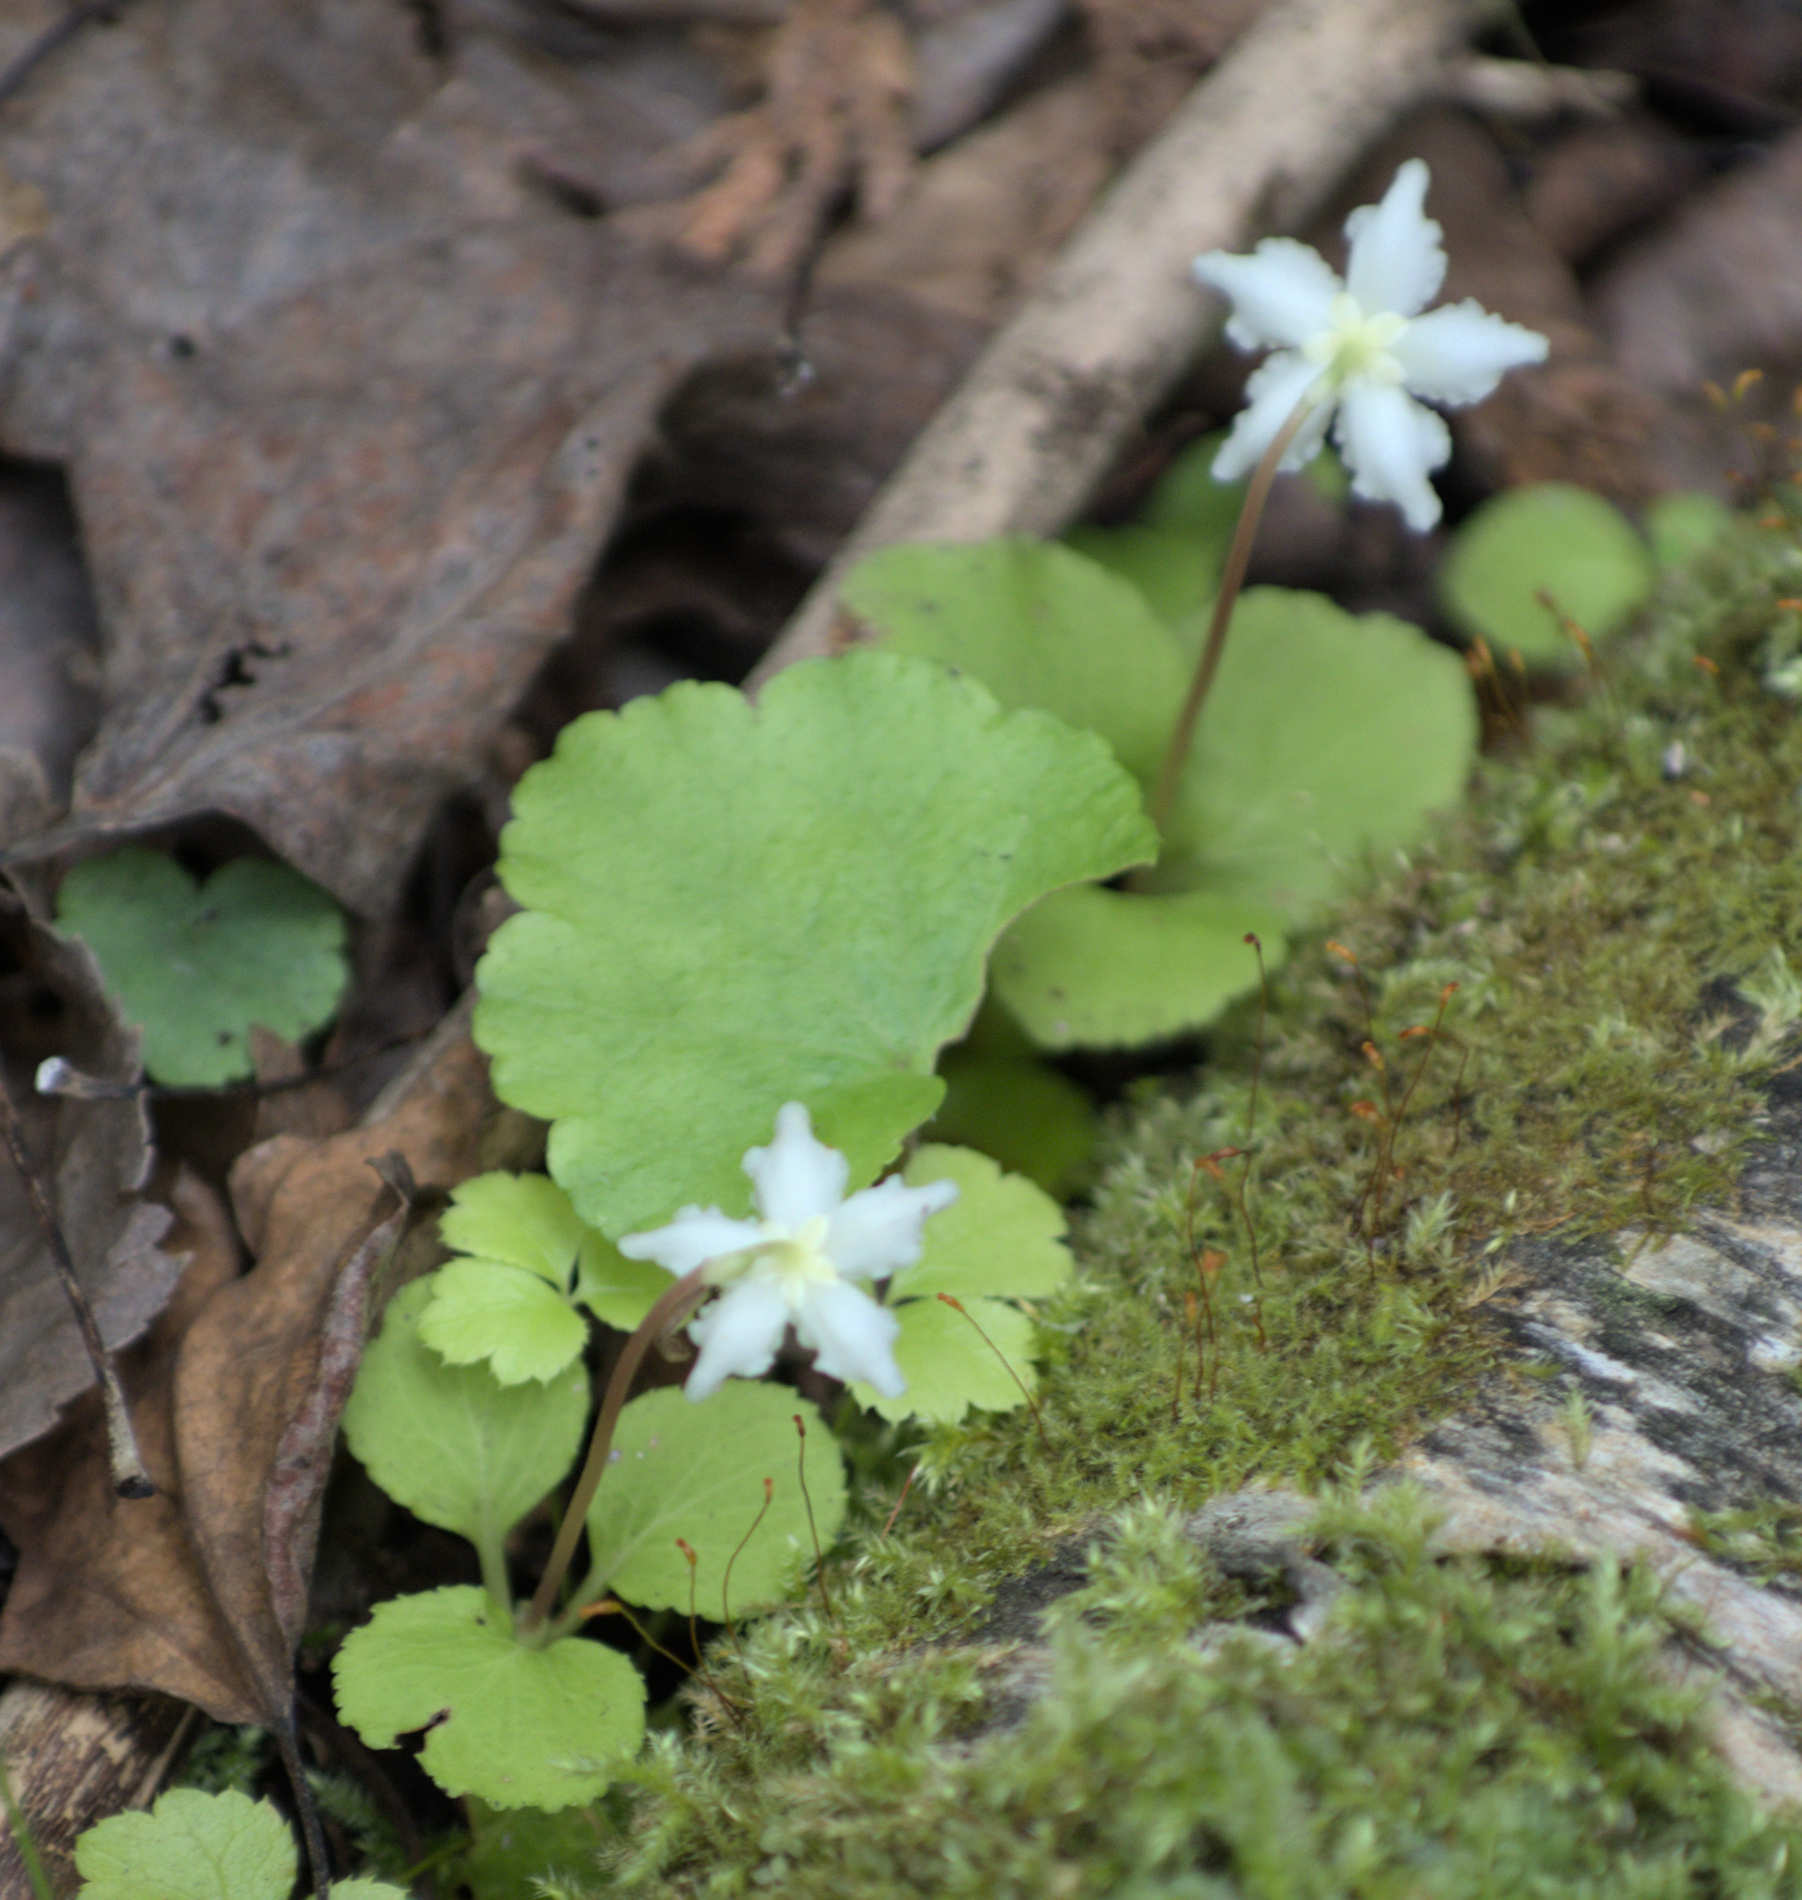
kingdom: Plantae
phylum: Tracheophyta
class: Magnoliopsida
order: Ericales
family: Ericaceae
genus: Moneses
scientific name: Moneses uniflora
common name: One-flowered wintergreen
